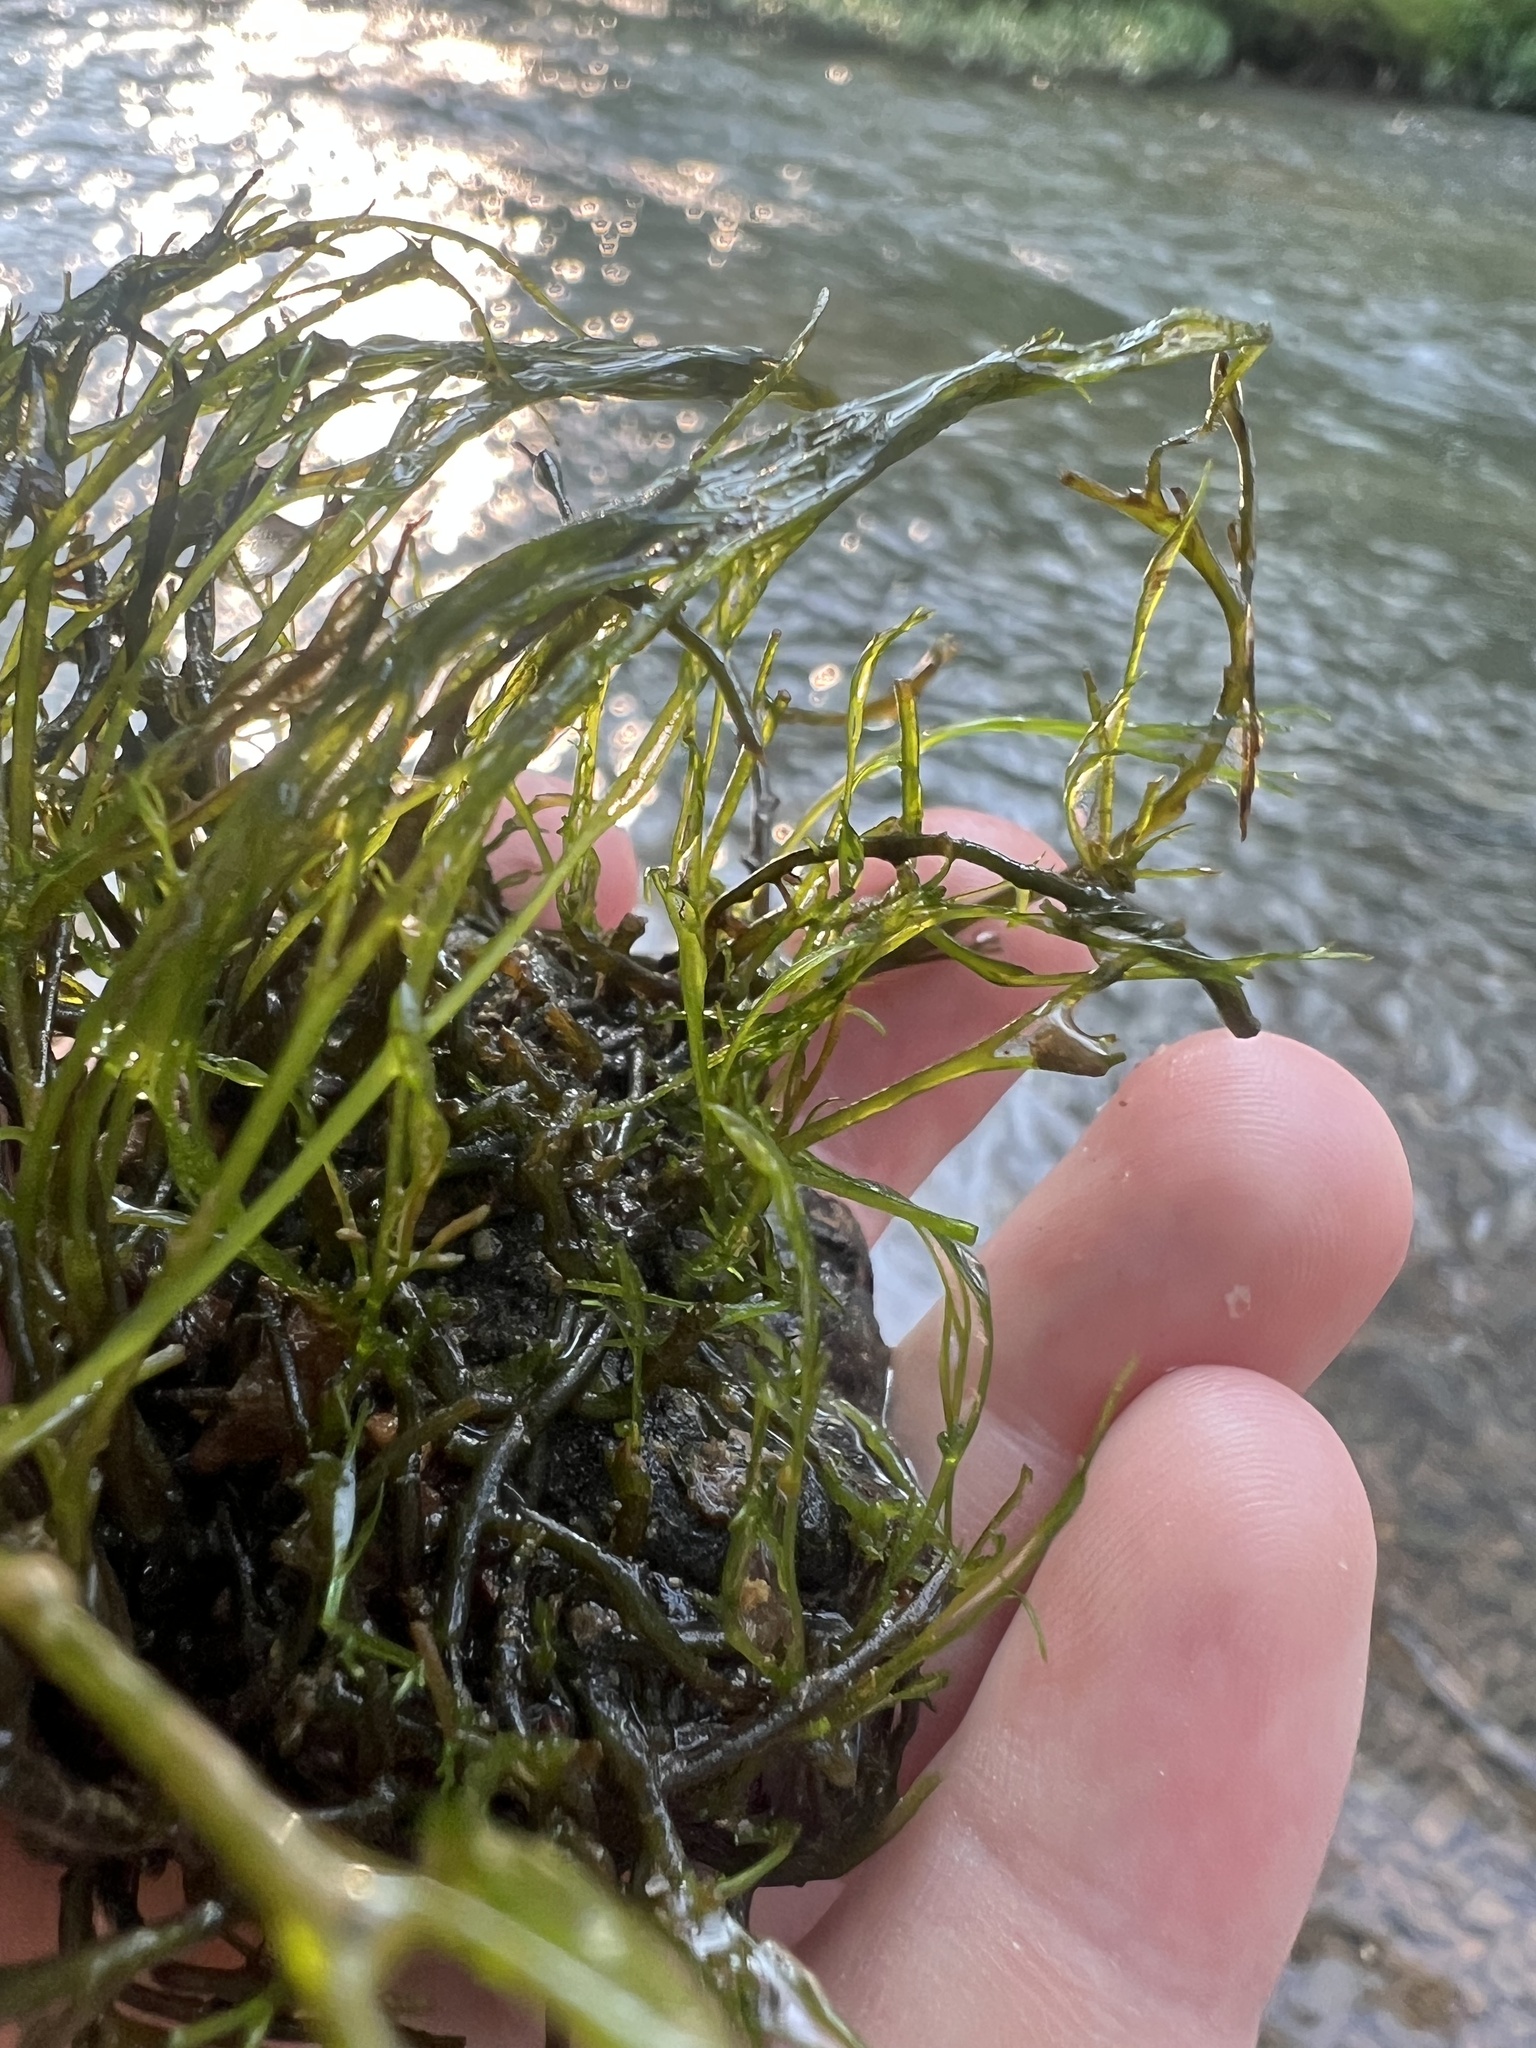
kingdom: Plantae
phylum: Tracheophyta
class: Magnoliopsida
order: Malpighiales
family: Podostemaceae
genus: Podostemum
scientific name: Podostemum ceratophyllum
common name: Horn-leaved riverweed
